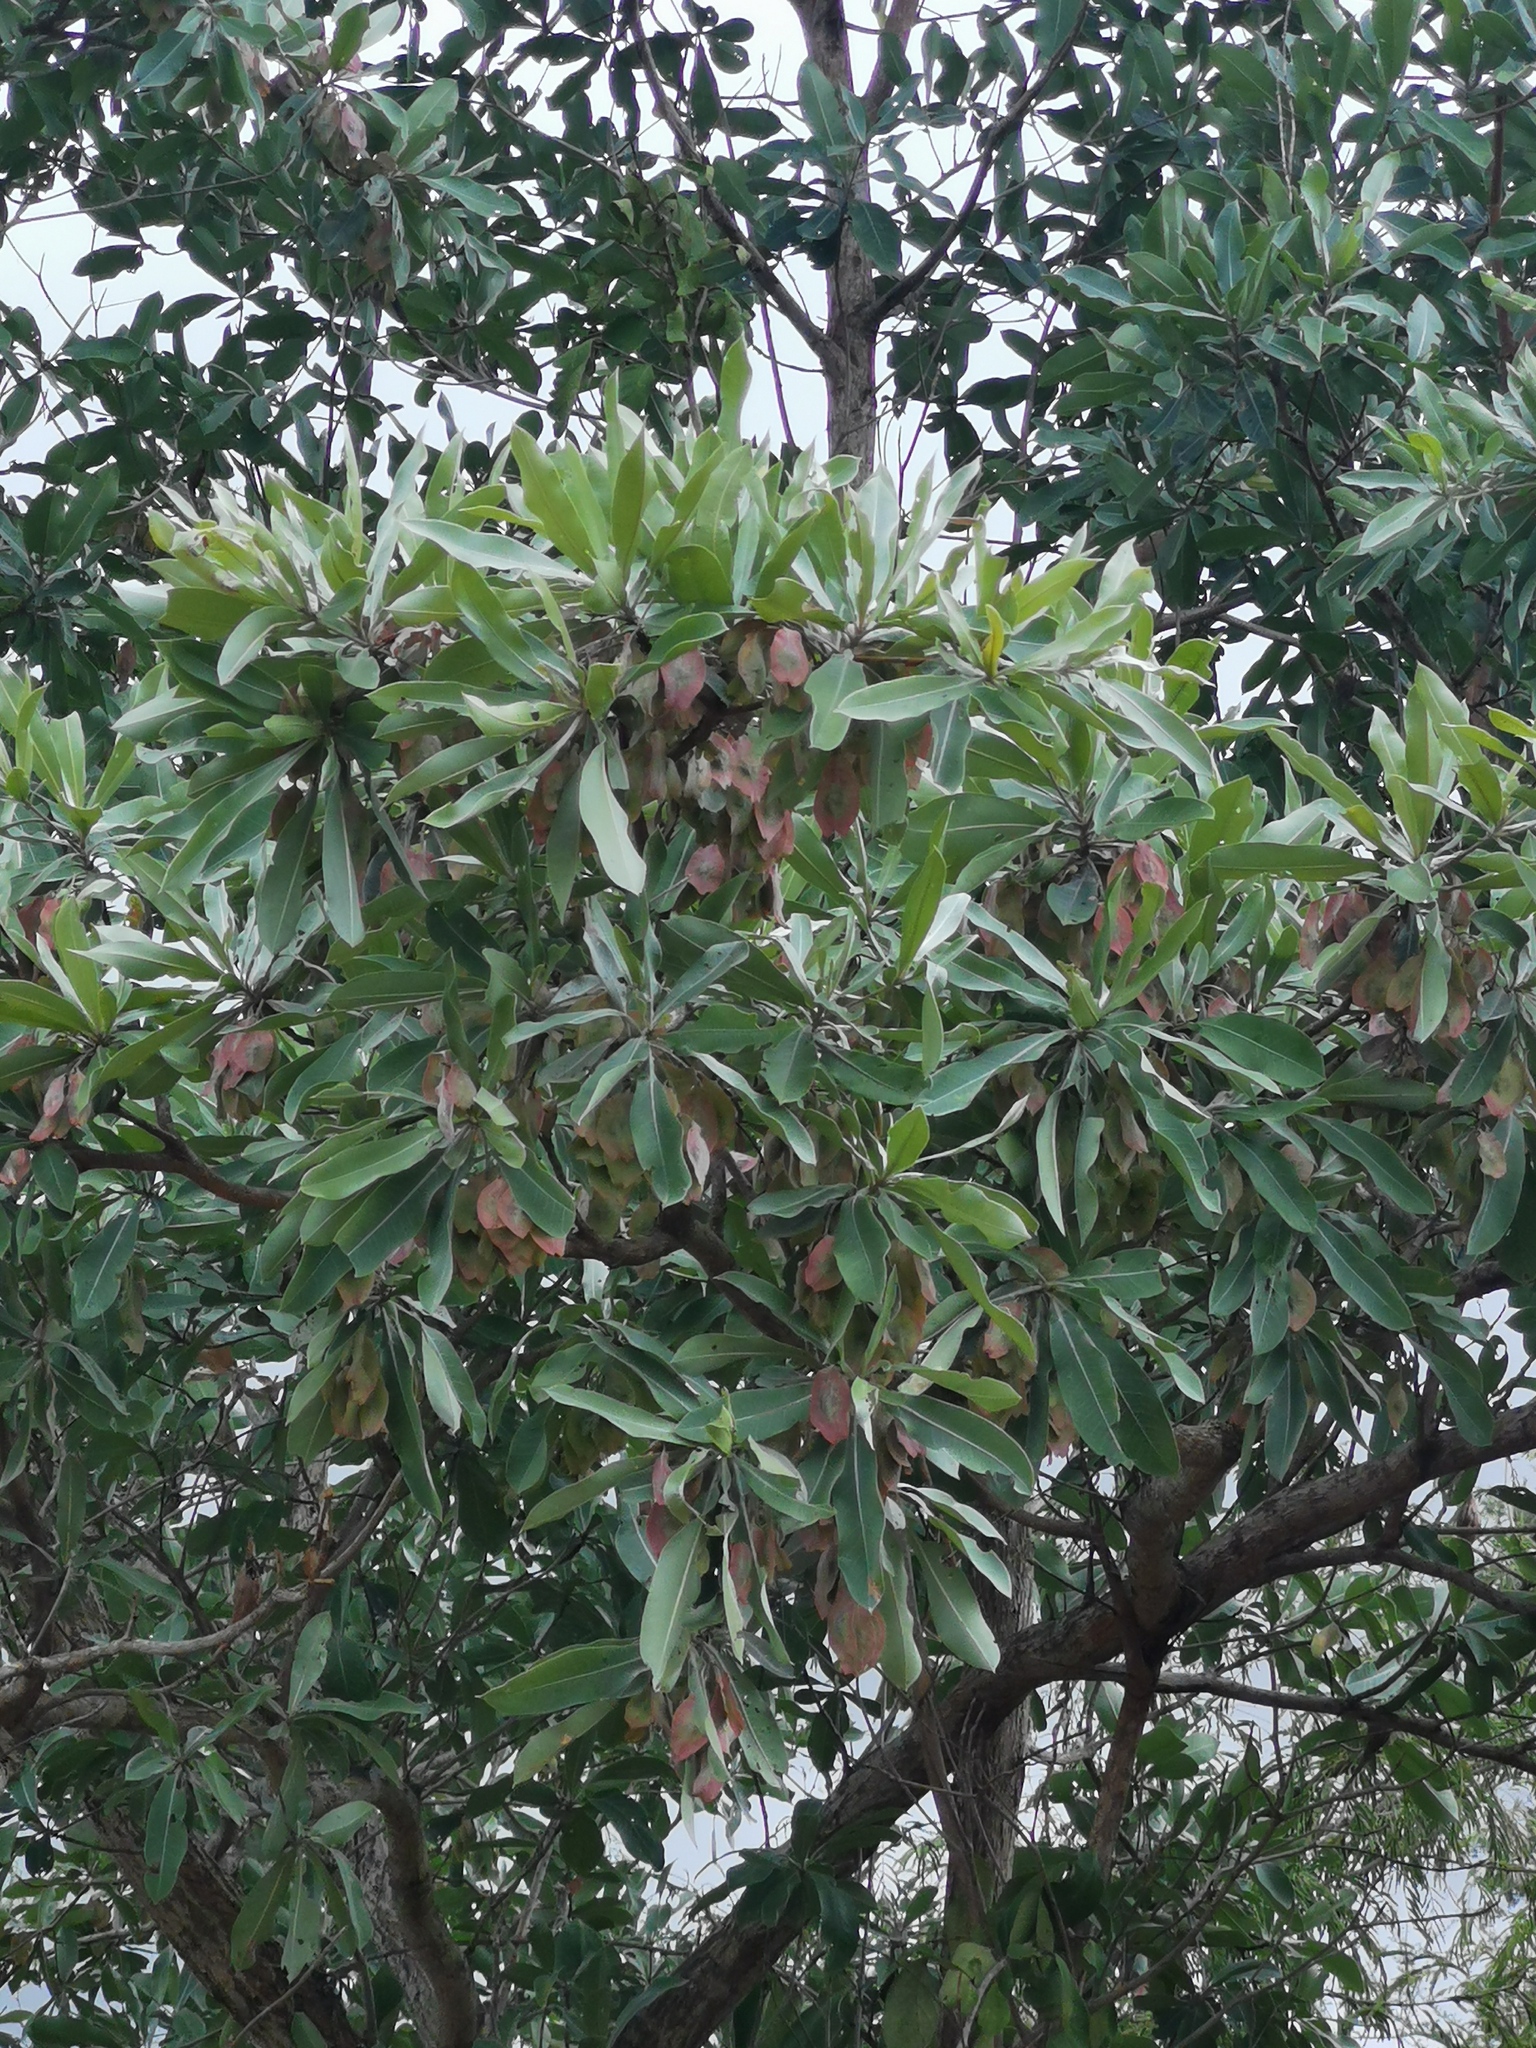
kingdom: Plantae
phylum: Tracheophyta
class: Magnoliopsida
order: Myrtales
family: Combretaceae
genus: Terminalia
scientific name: Terminalia sericea
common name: Clusterleaf
